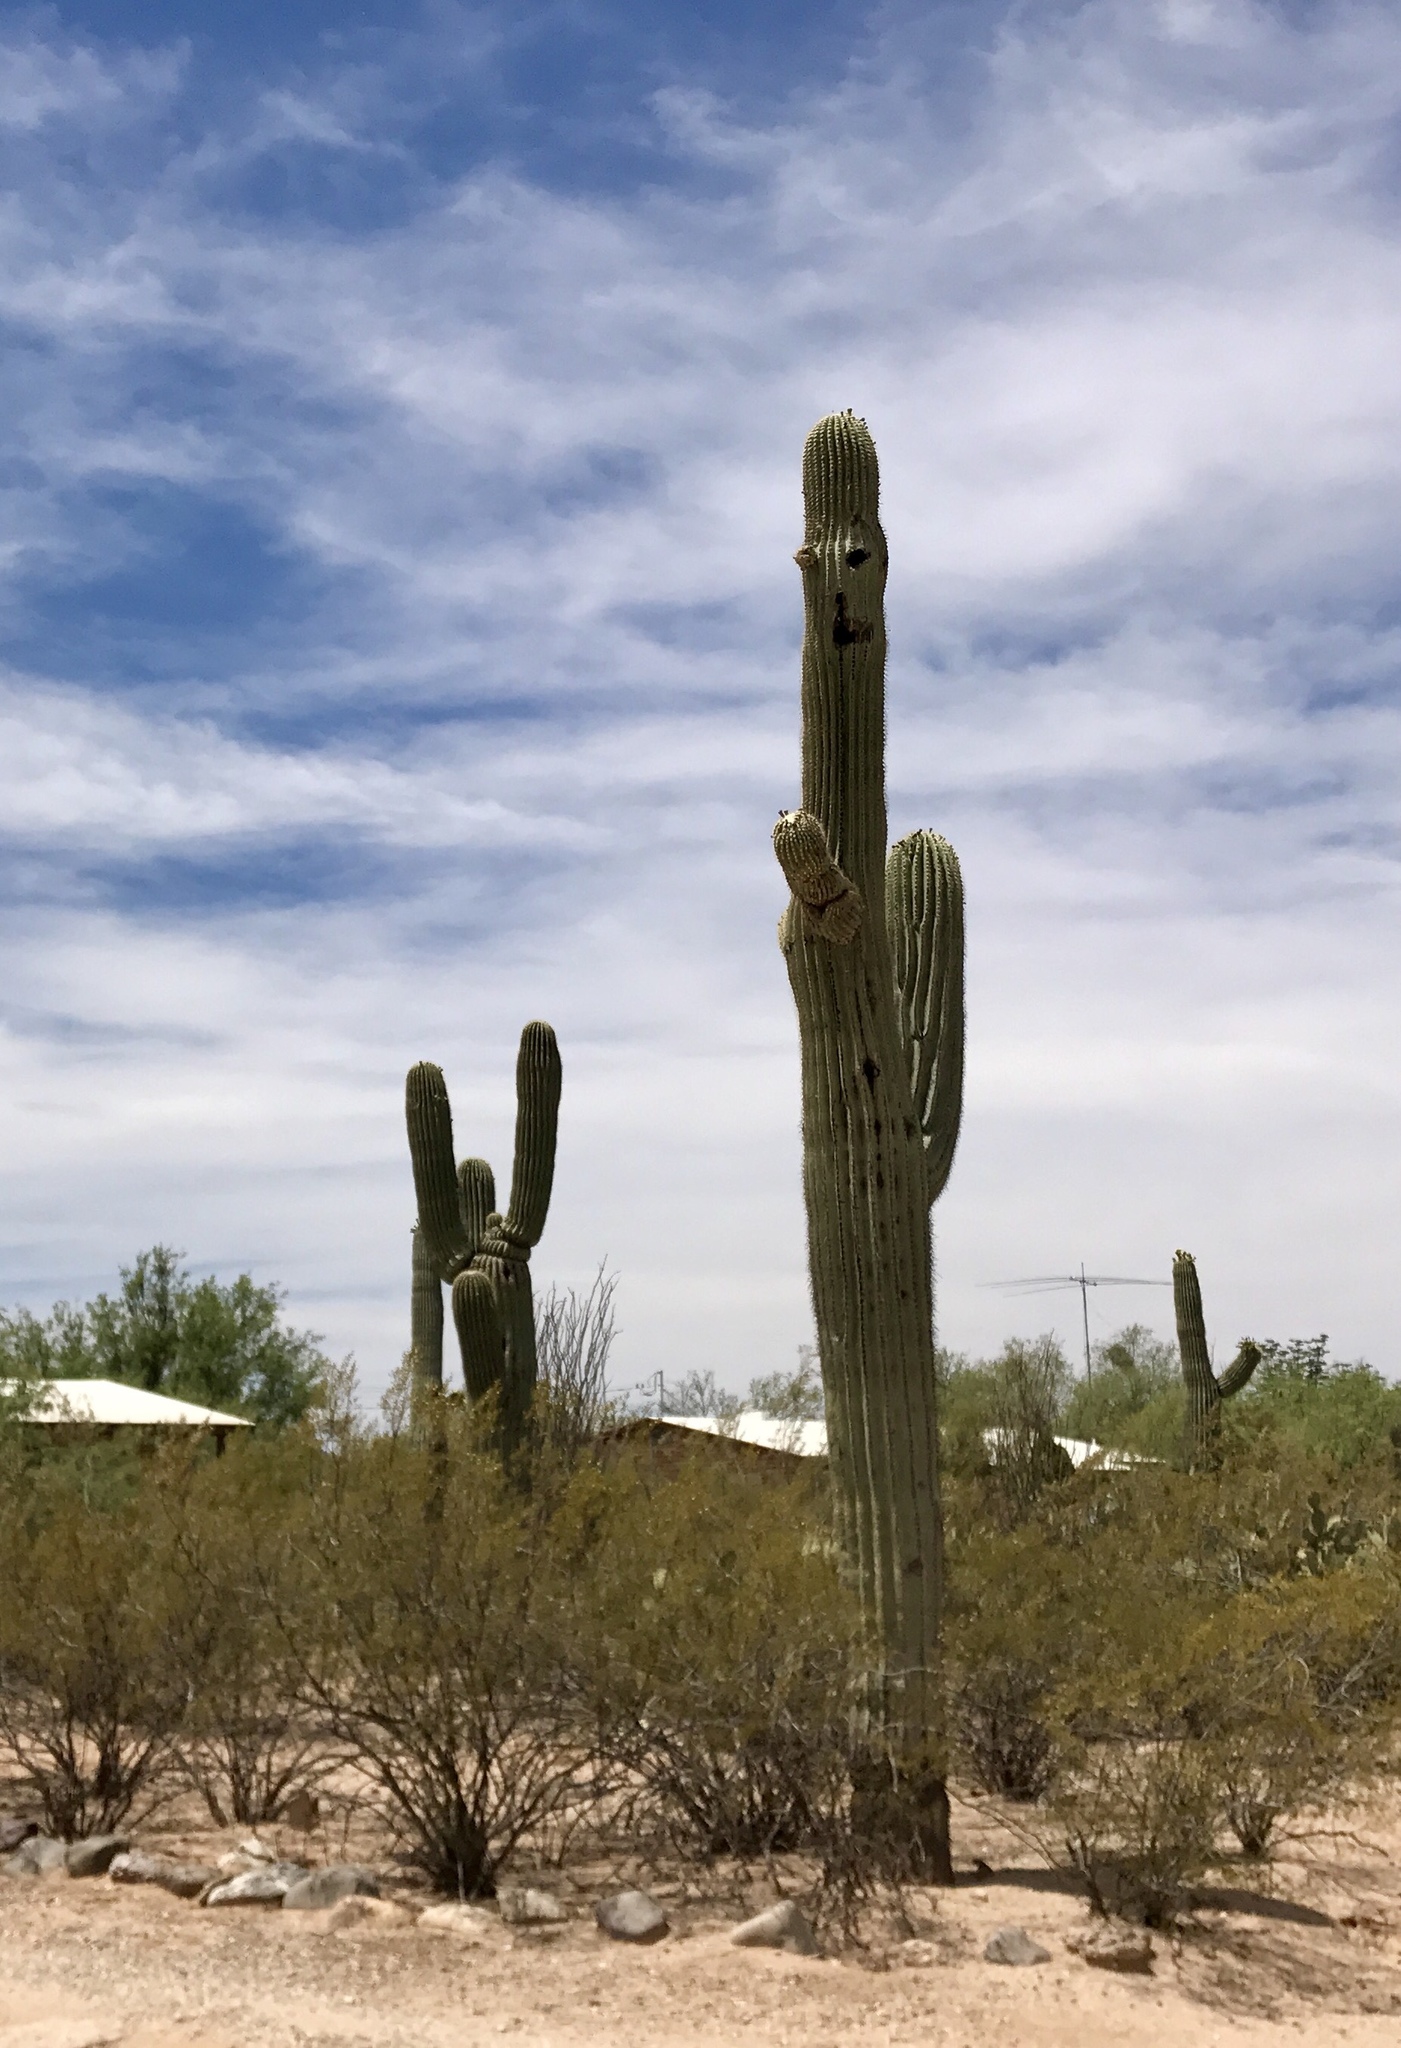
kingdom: Plantae
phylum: Tracheophyta
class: Magnoliopsida
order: Caryophyllales
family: Cactaceae
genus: Carnegiea
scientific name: Carnegiea gigantea
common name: Saguaro
